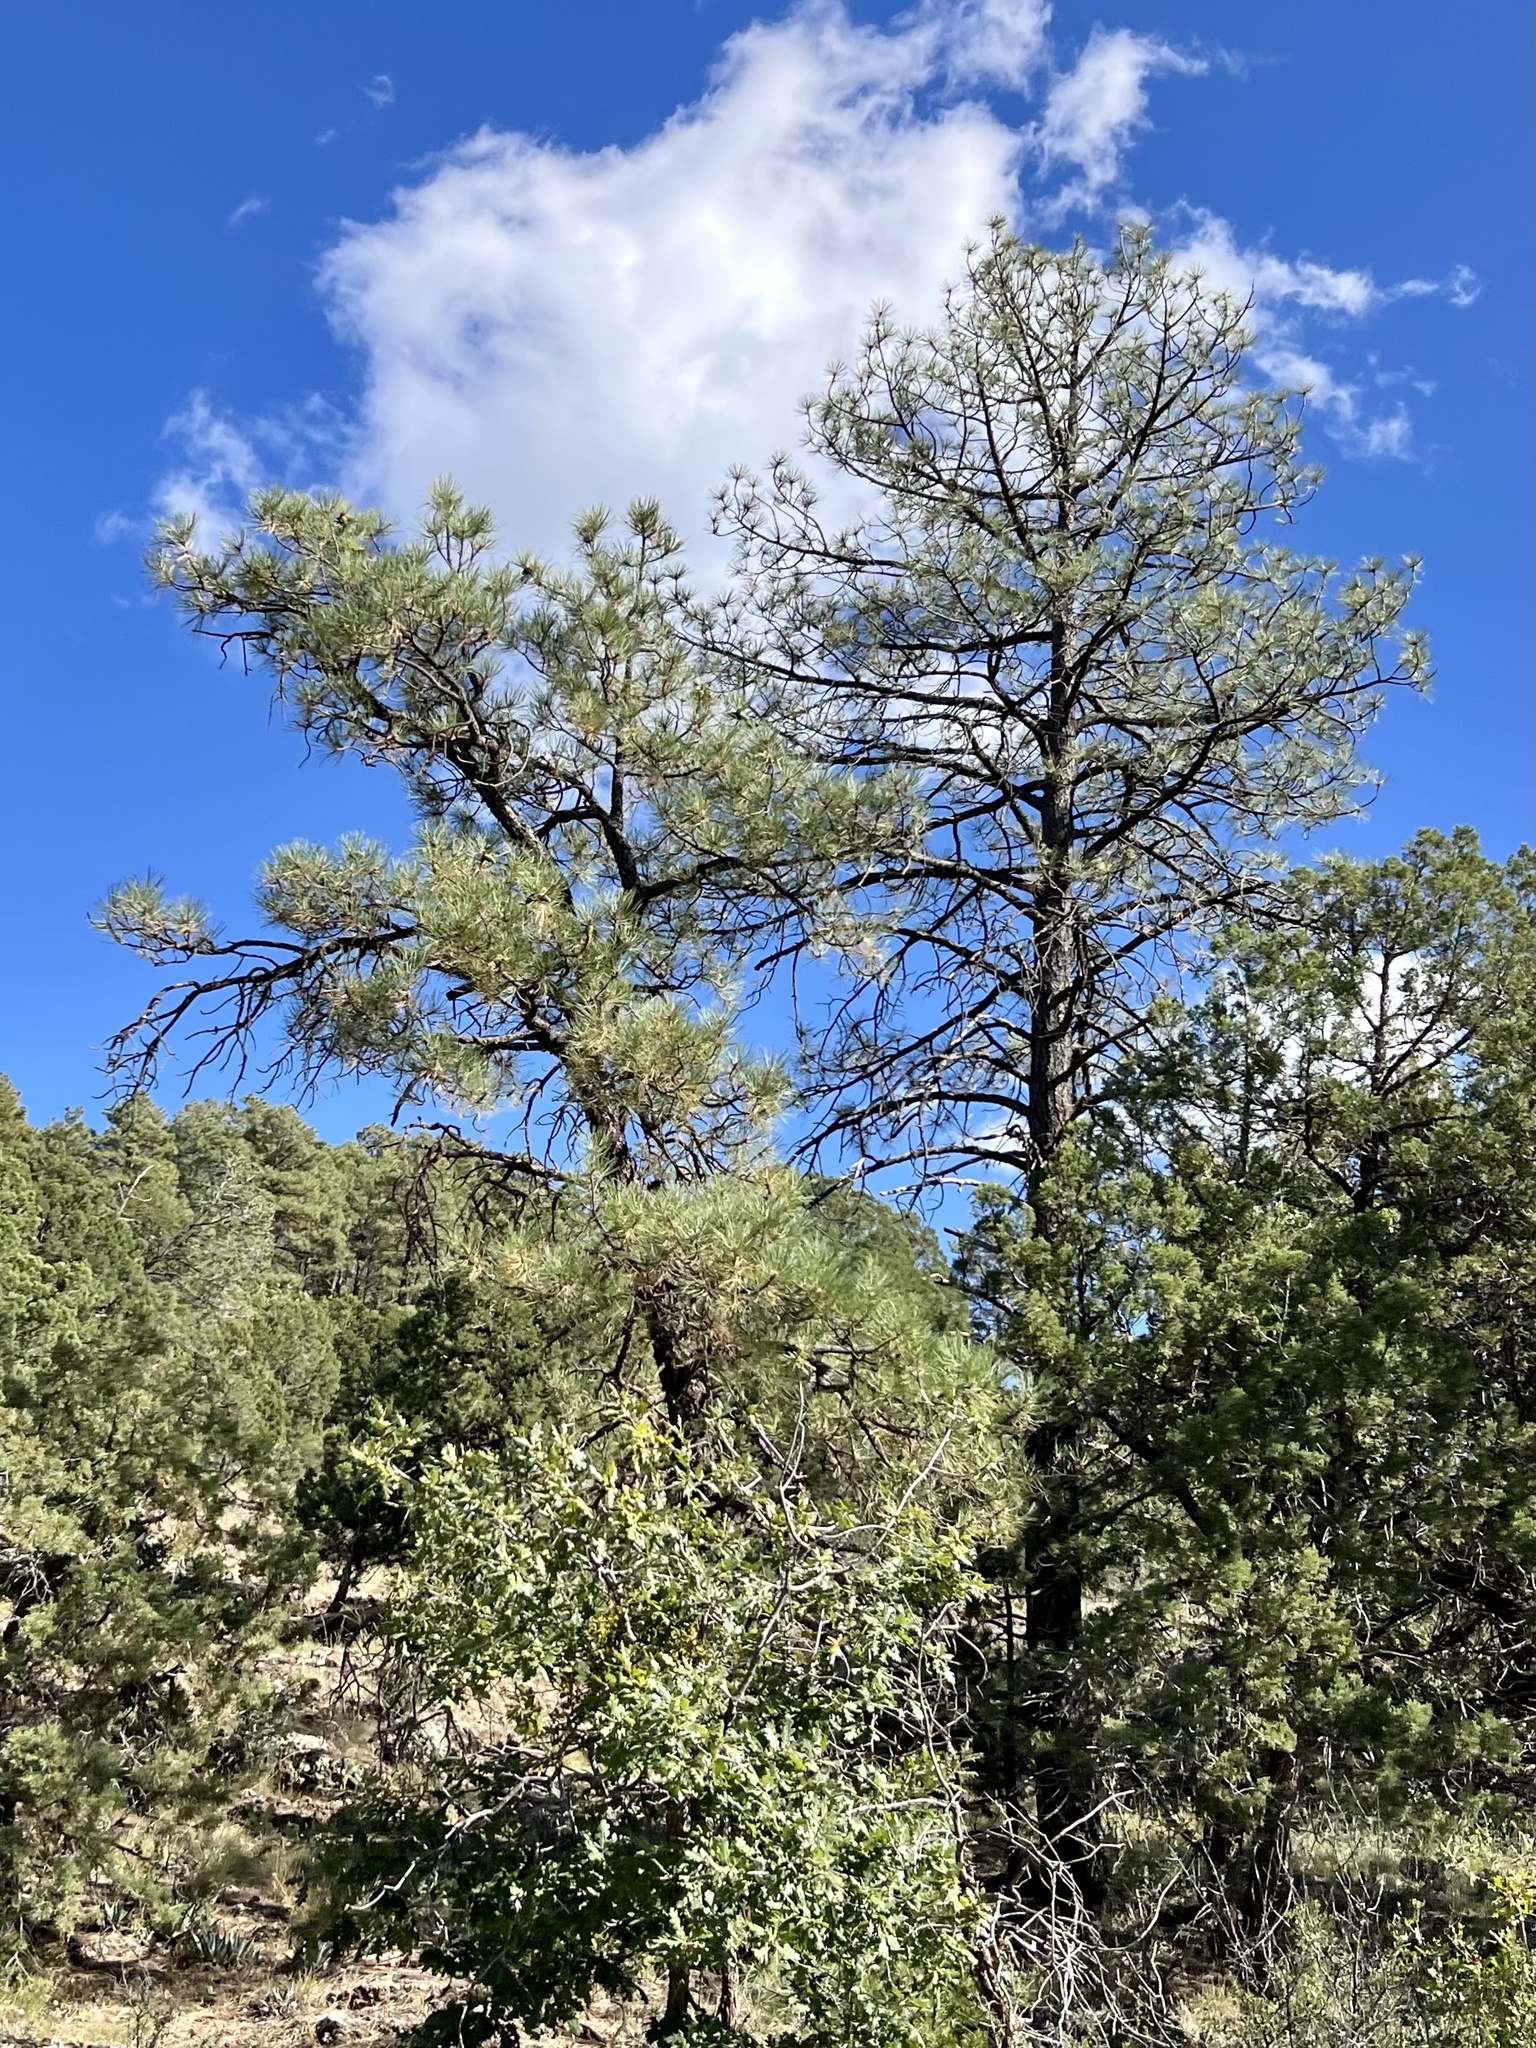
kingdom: Plantae
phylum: Tracheophyta
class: Pinopsida
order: Pinales
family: Pinaceae
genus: Pinus
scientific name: Pinus ponderosa
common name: Western yellow-pine
